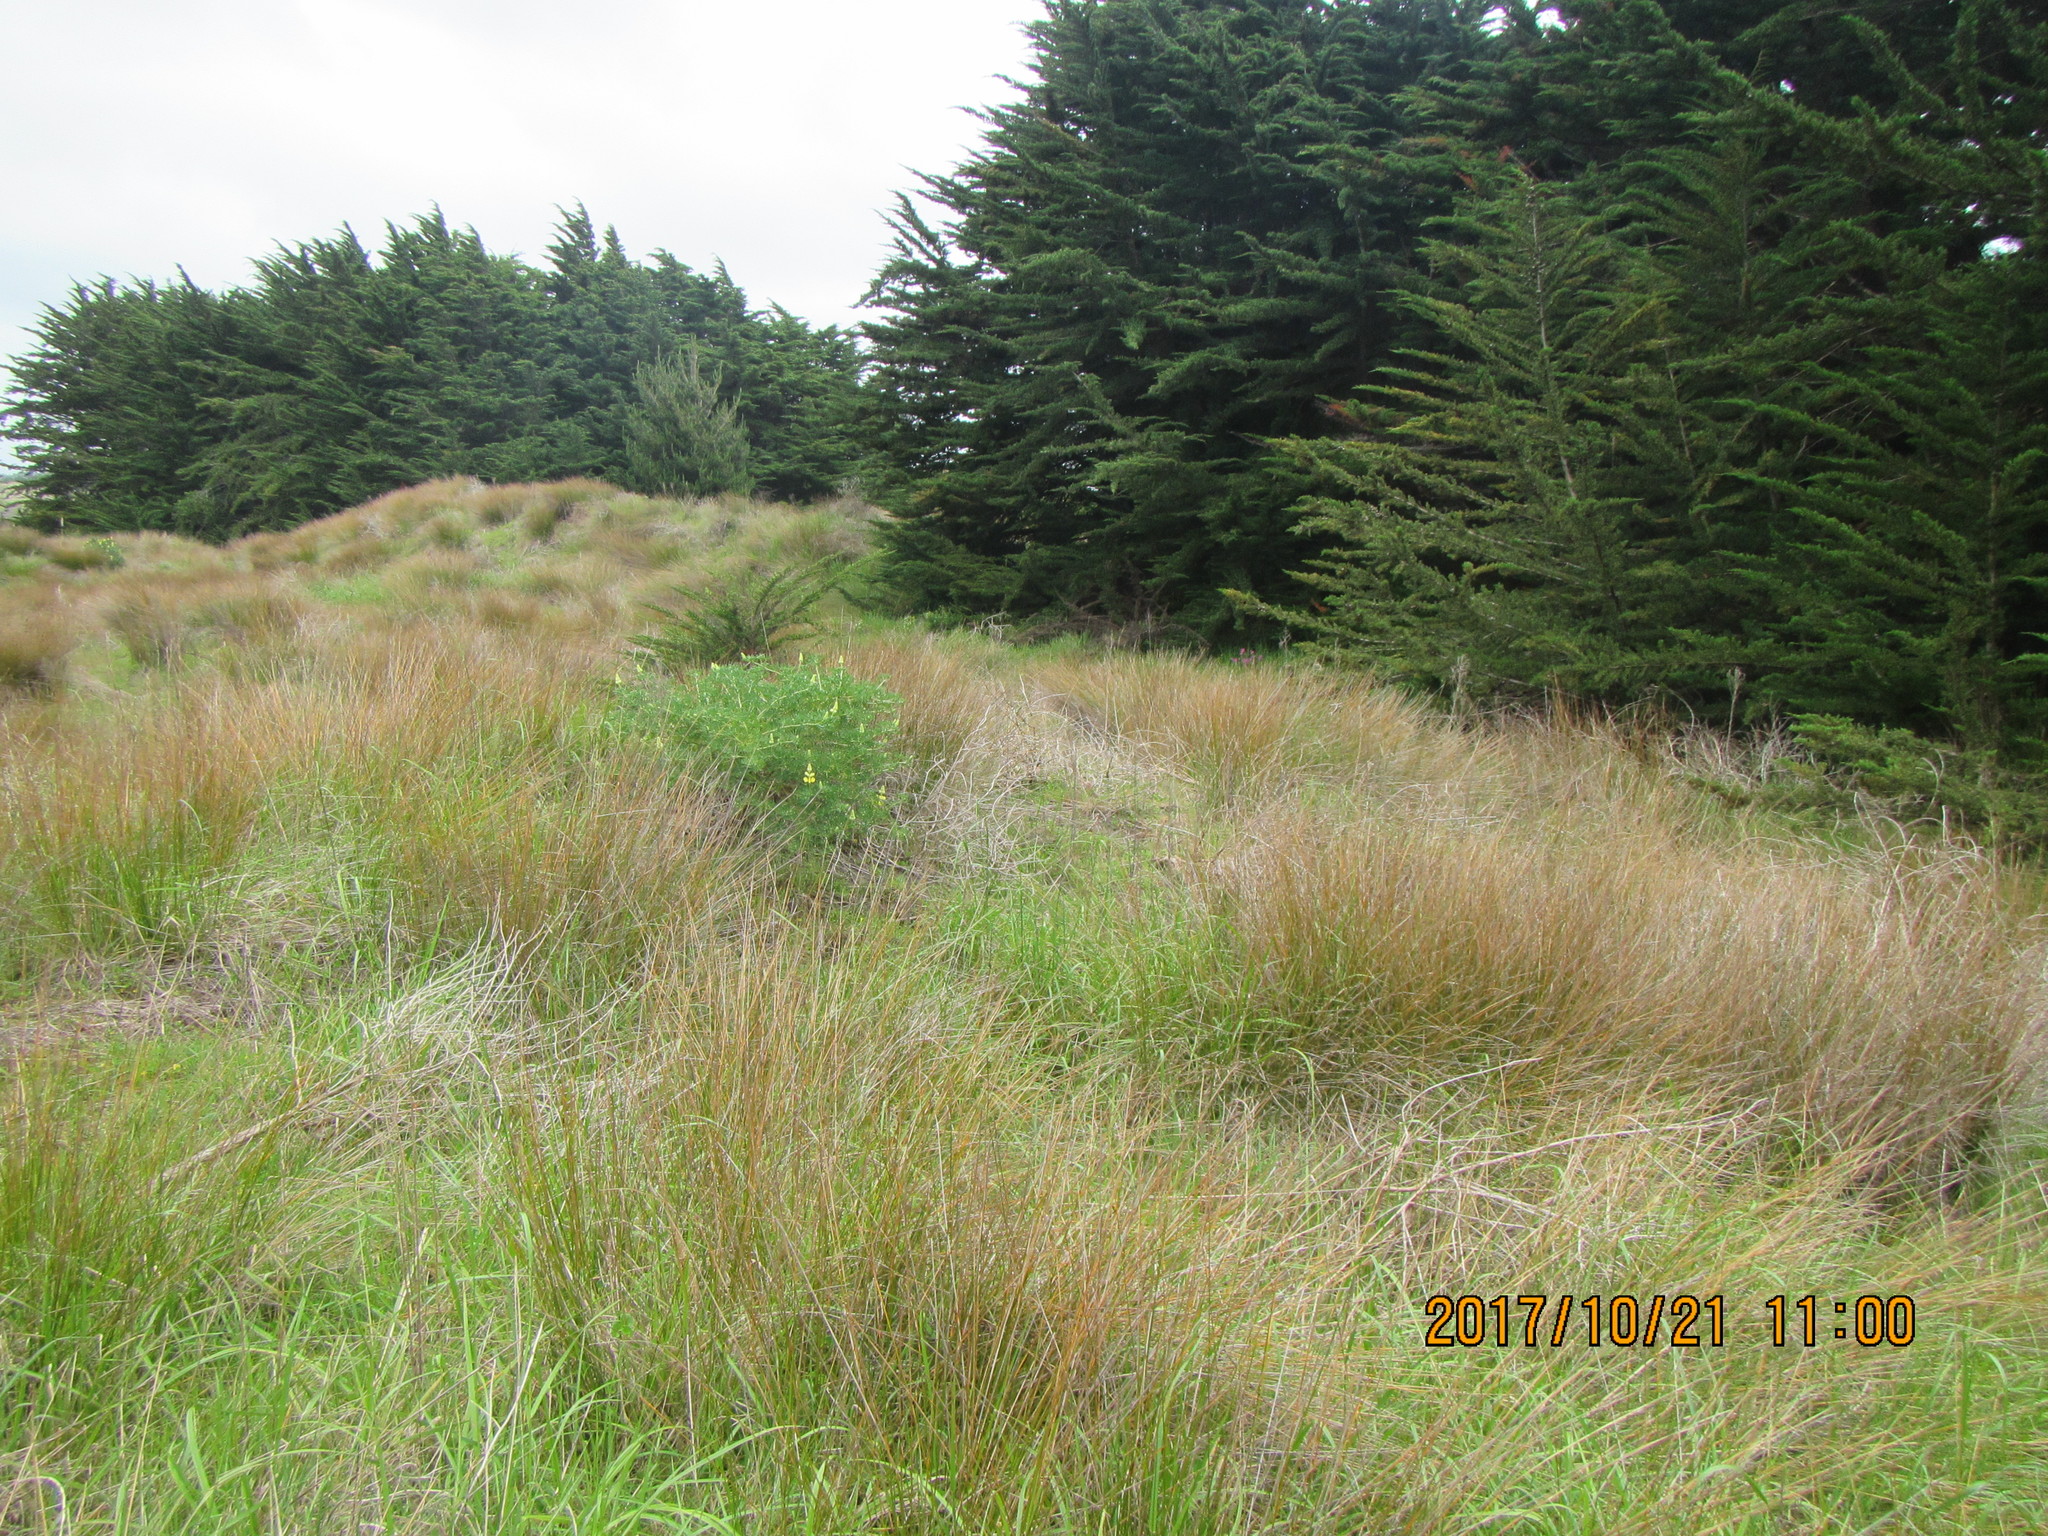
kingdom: Plantae
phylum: Tracheophyta
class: Liliopsida
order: Poales
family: Cyperaceae
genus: Ficinia
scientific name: Ficinia nodosa
